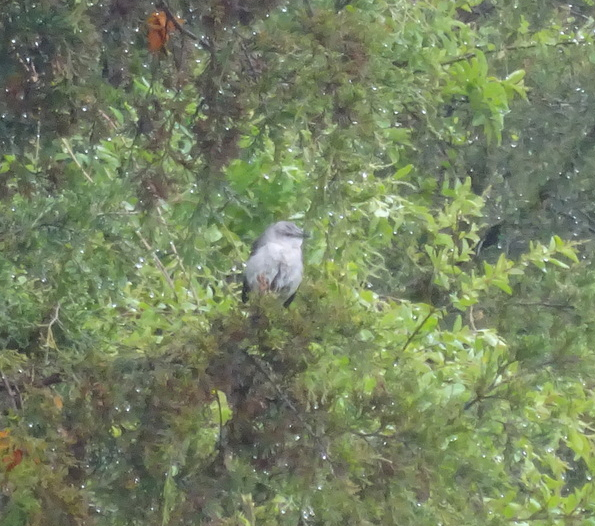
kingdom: Animalia
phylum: Chordata
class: Aves
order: Passeriformes
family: Mimidae
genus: Mimus
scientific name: Mimus polyglottos
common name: Northern mockingbird
